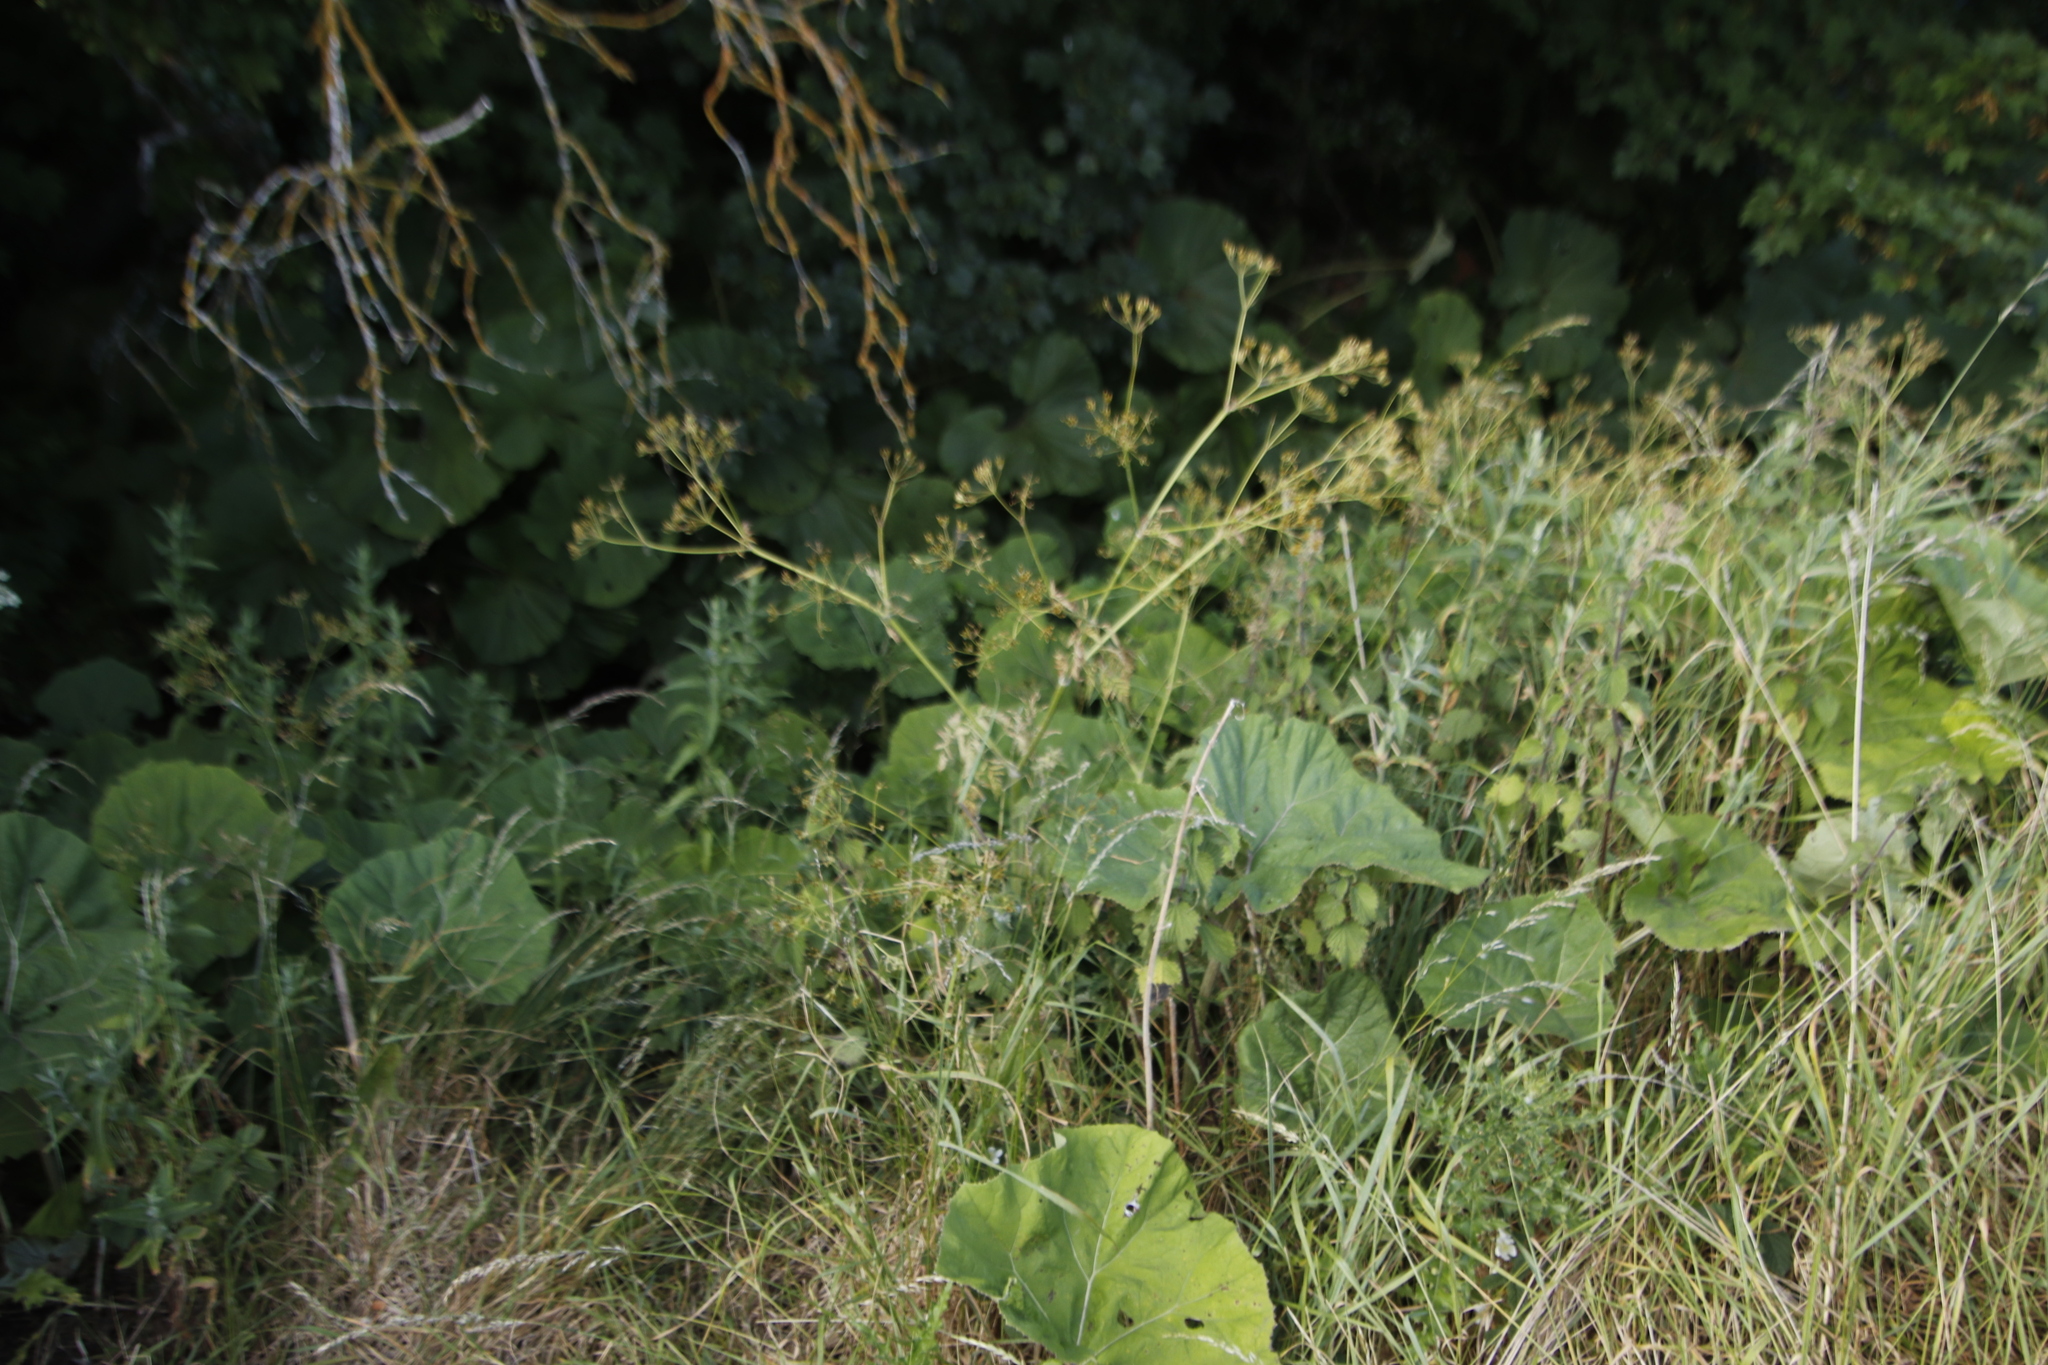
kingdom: Plantae
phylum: Tracheophyta
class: Magnoliopsida
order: Apiales
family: Apiaceae
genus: Anthriscus
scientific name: Anthriscus sylvestris
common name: Cow parsley
